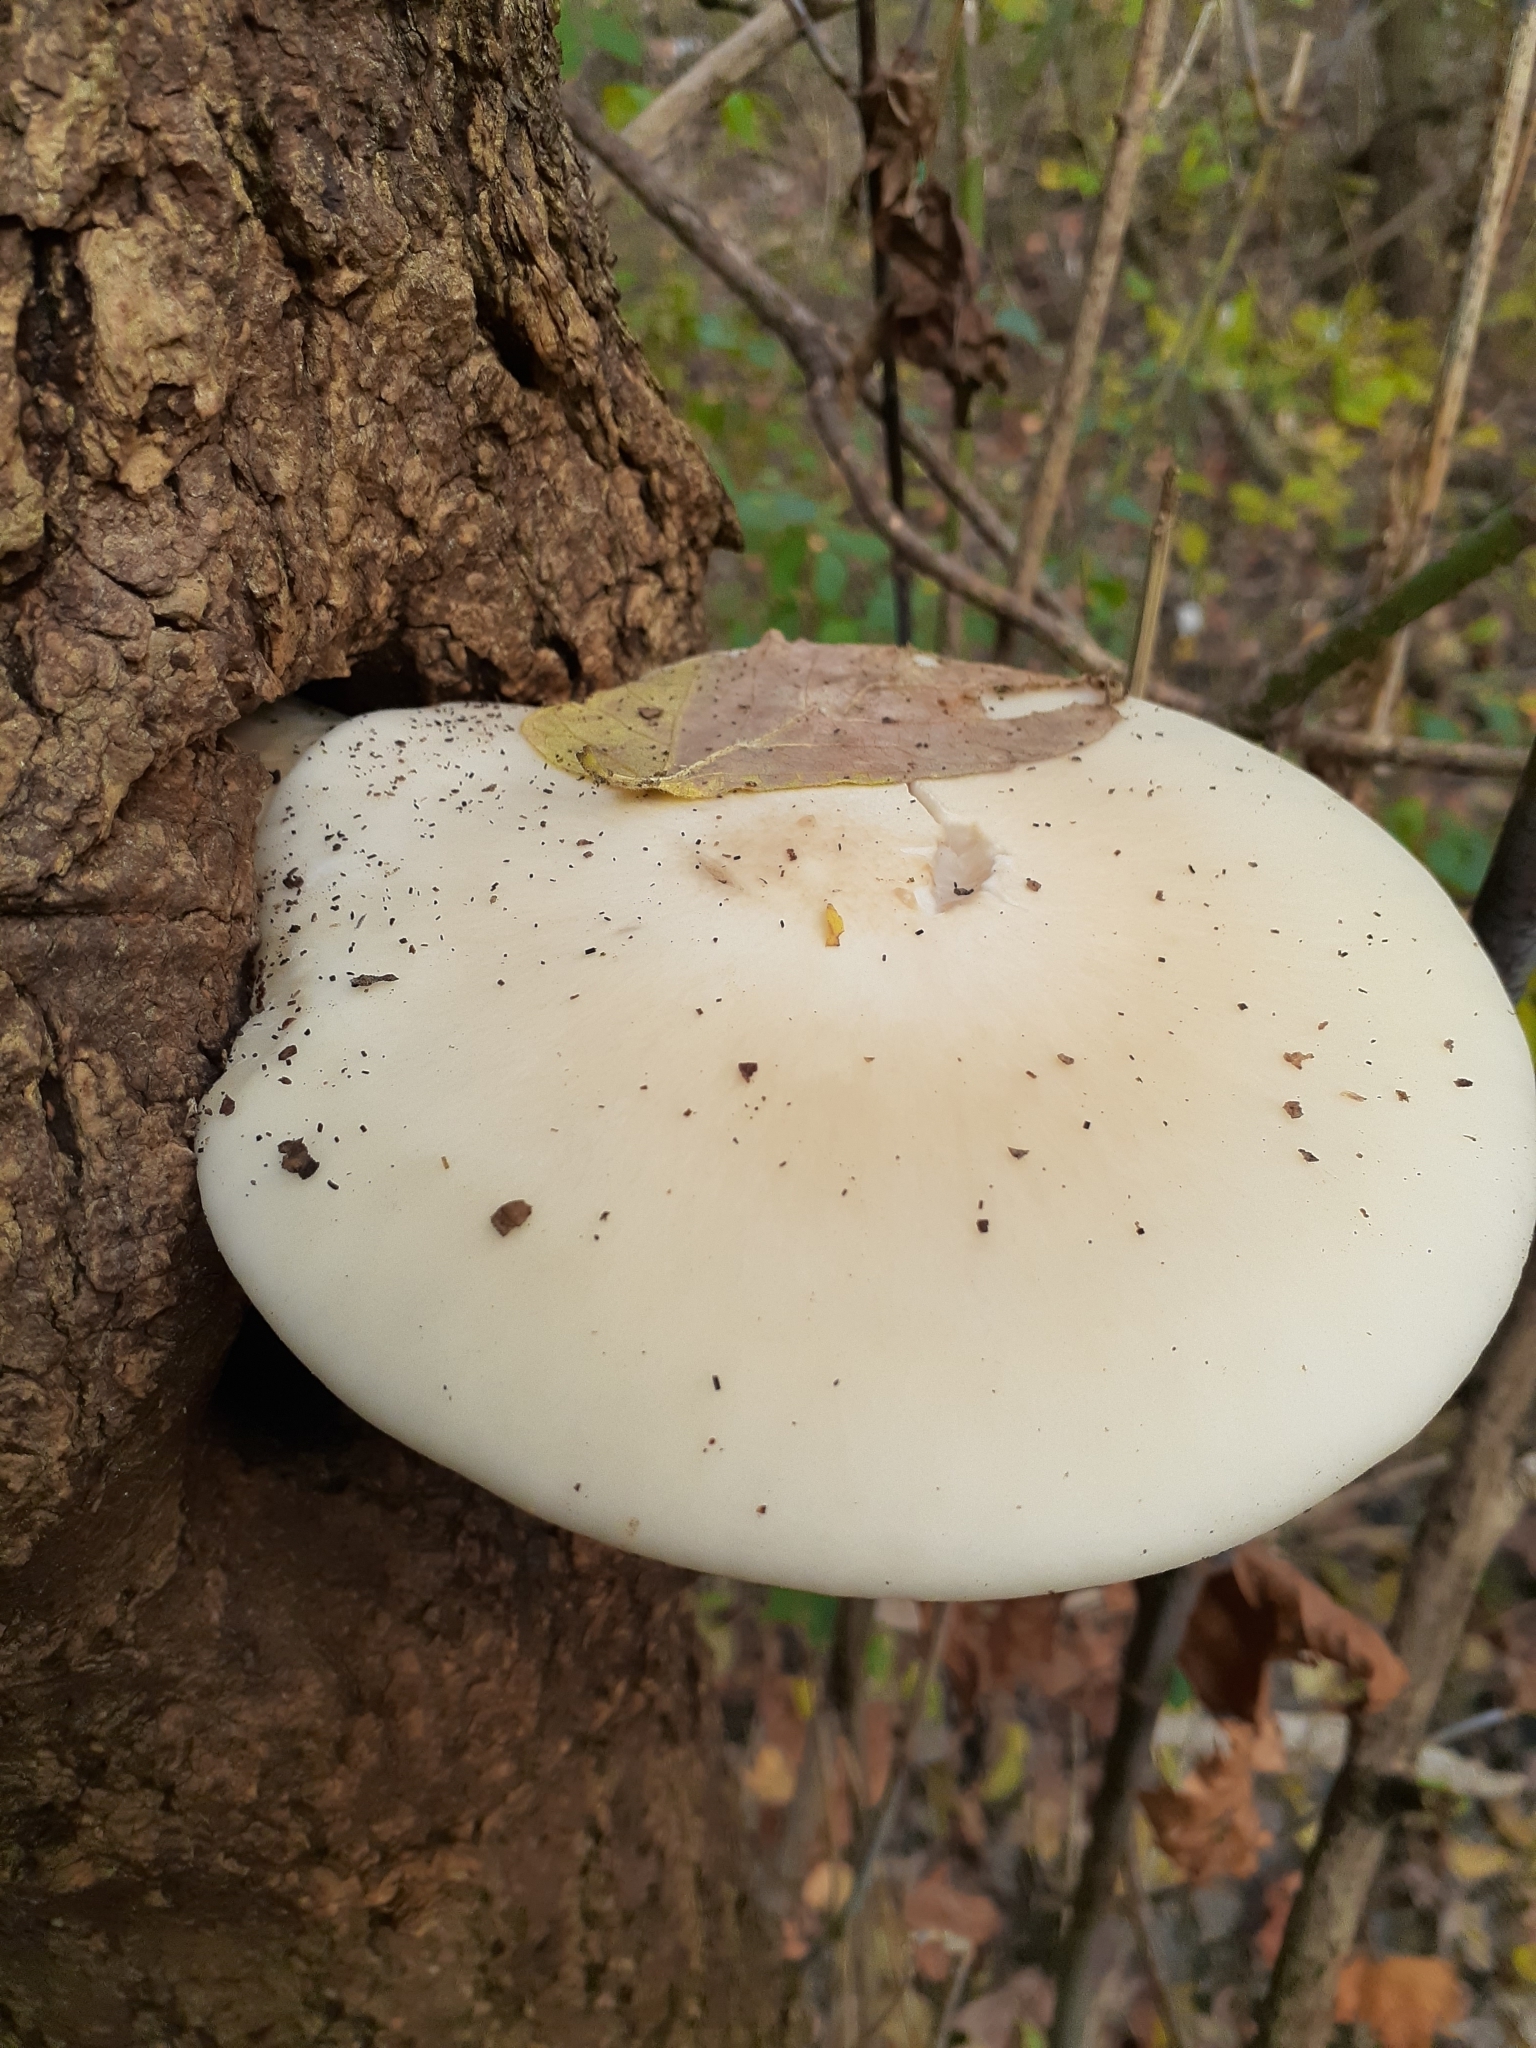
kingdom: Fungi
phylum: Basidiomycota
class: Agaricomycetes
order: Agaricales
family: Lyophyllaceae
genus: Hypsizygus
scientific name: Hypsizygus ulmarius
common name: Elm leech
